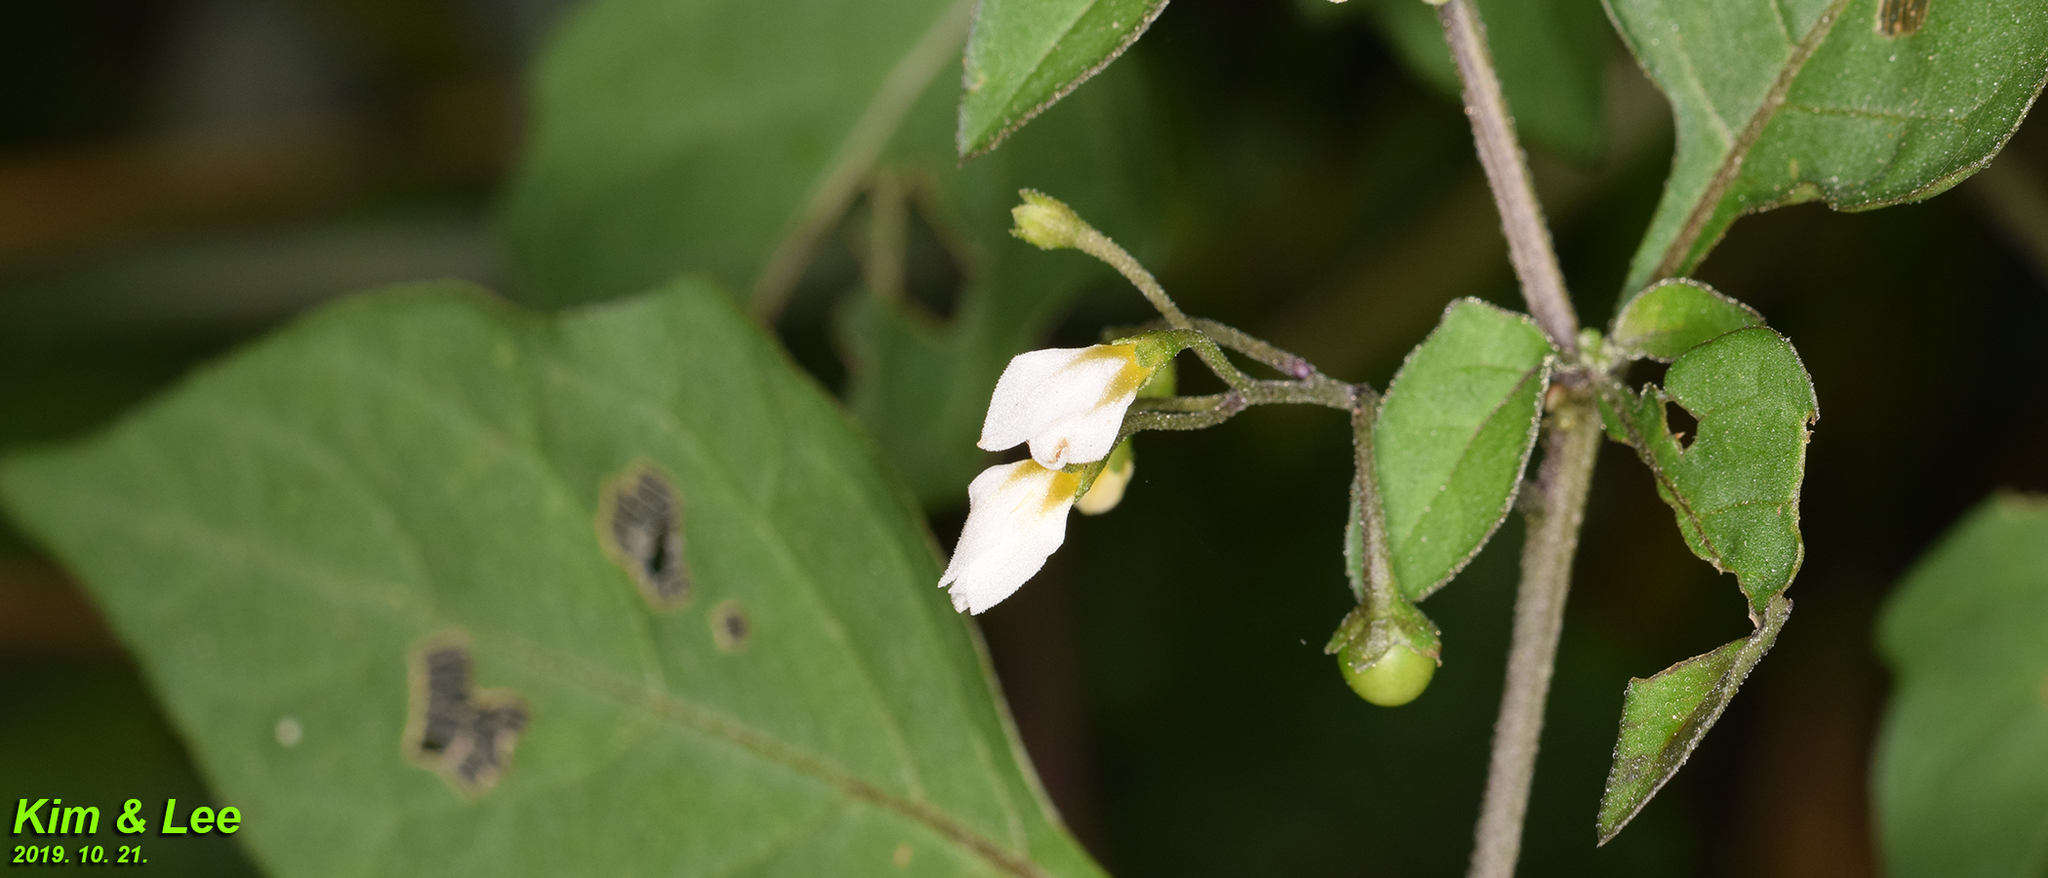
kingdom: Plantae
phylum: Tracheophyta
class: Magnoliopsida
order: Solanales
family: Solanaceae
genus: Solanum
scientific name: Solanum nigrum
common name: Black nightshade
